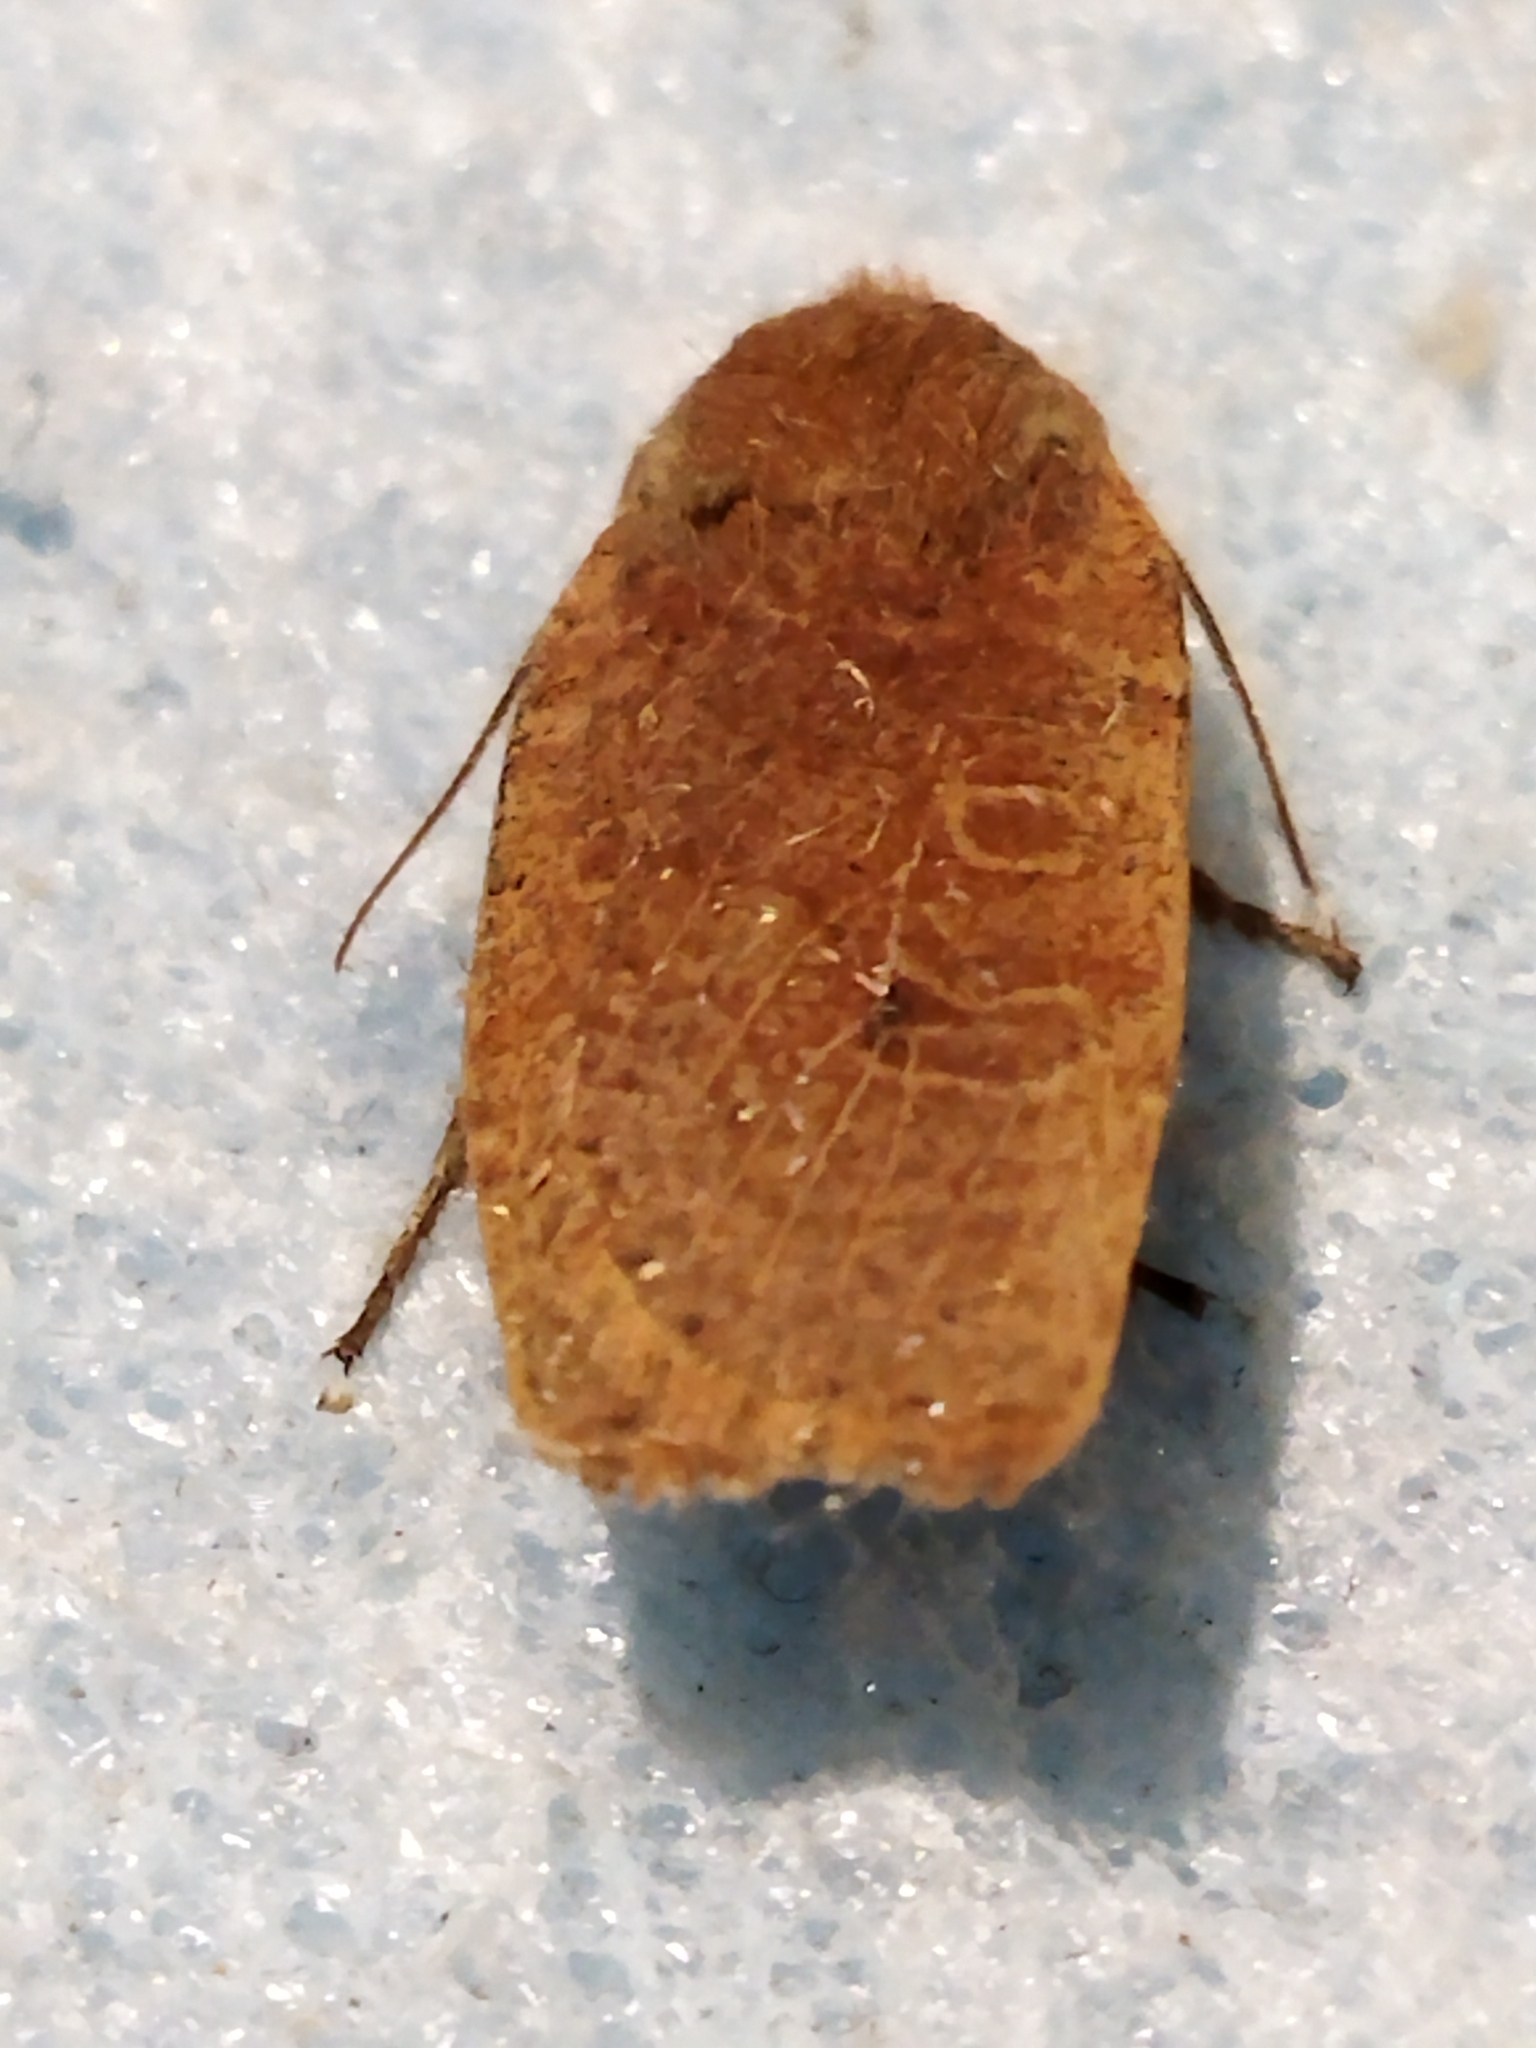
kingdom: Animalia
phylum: Arthropoda
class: Insecta
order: Lepidoptera
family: Noctuidae
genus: Conistra
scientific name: Conistra ragusae
